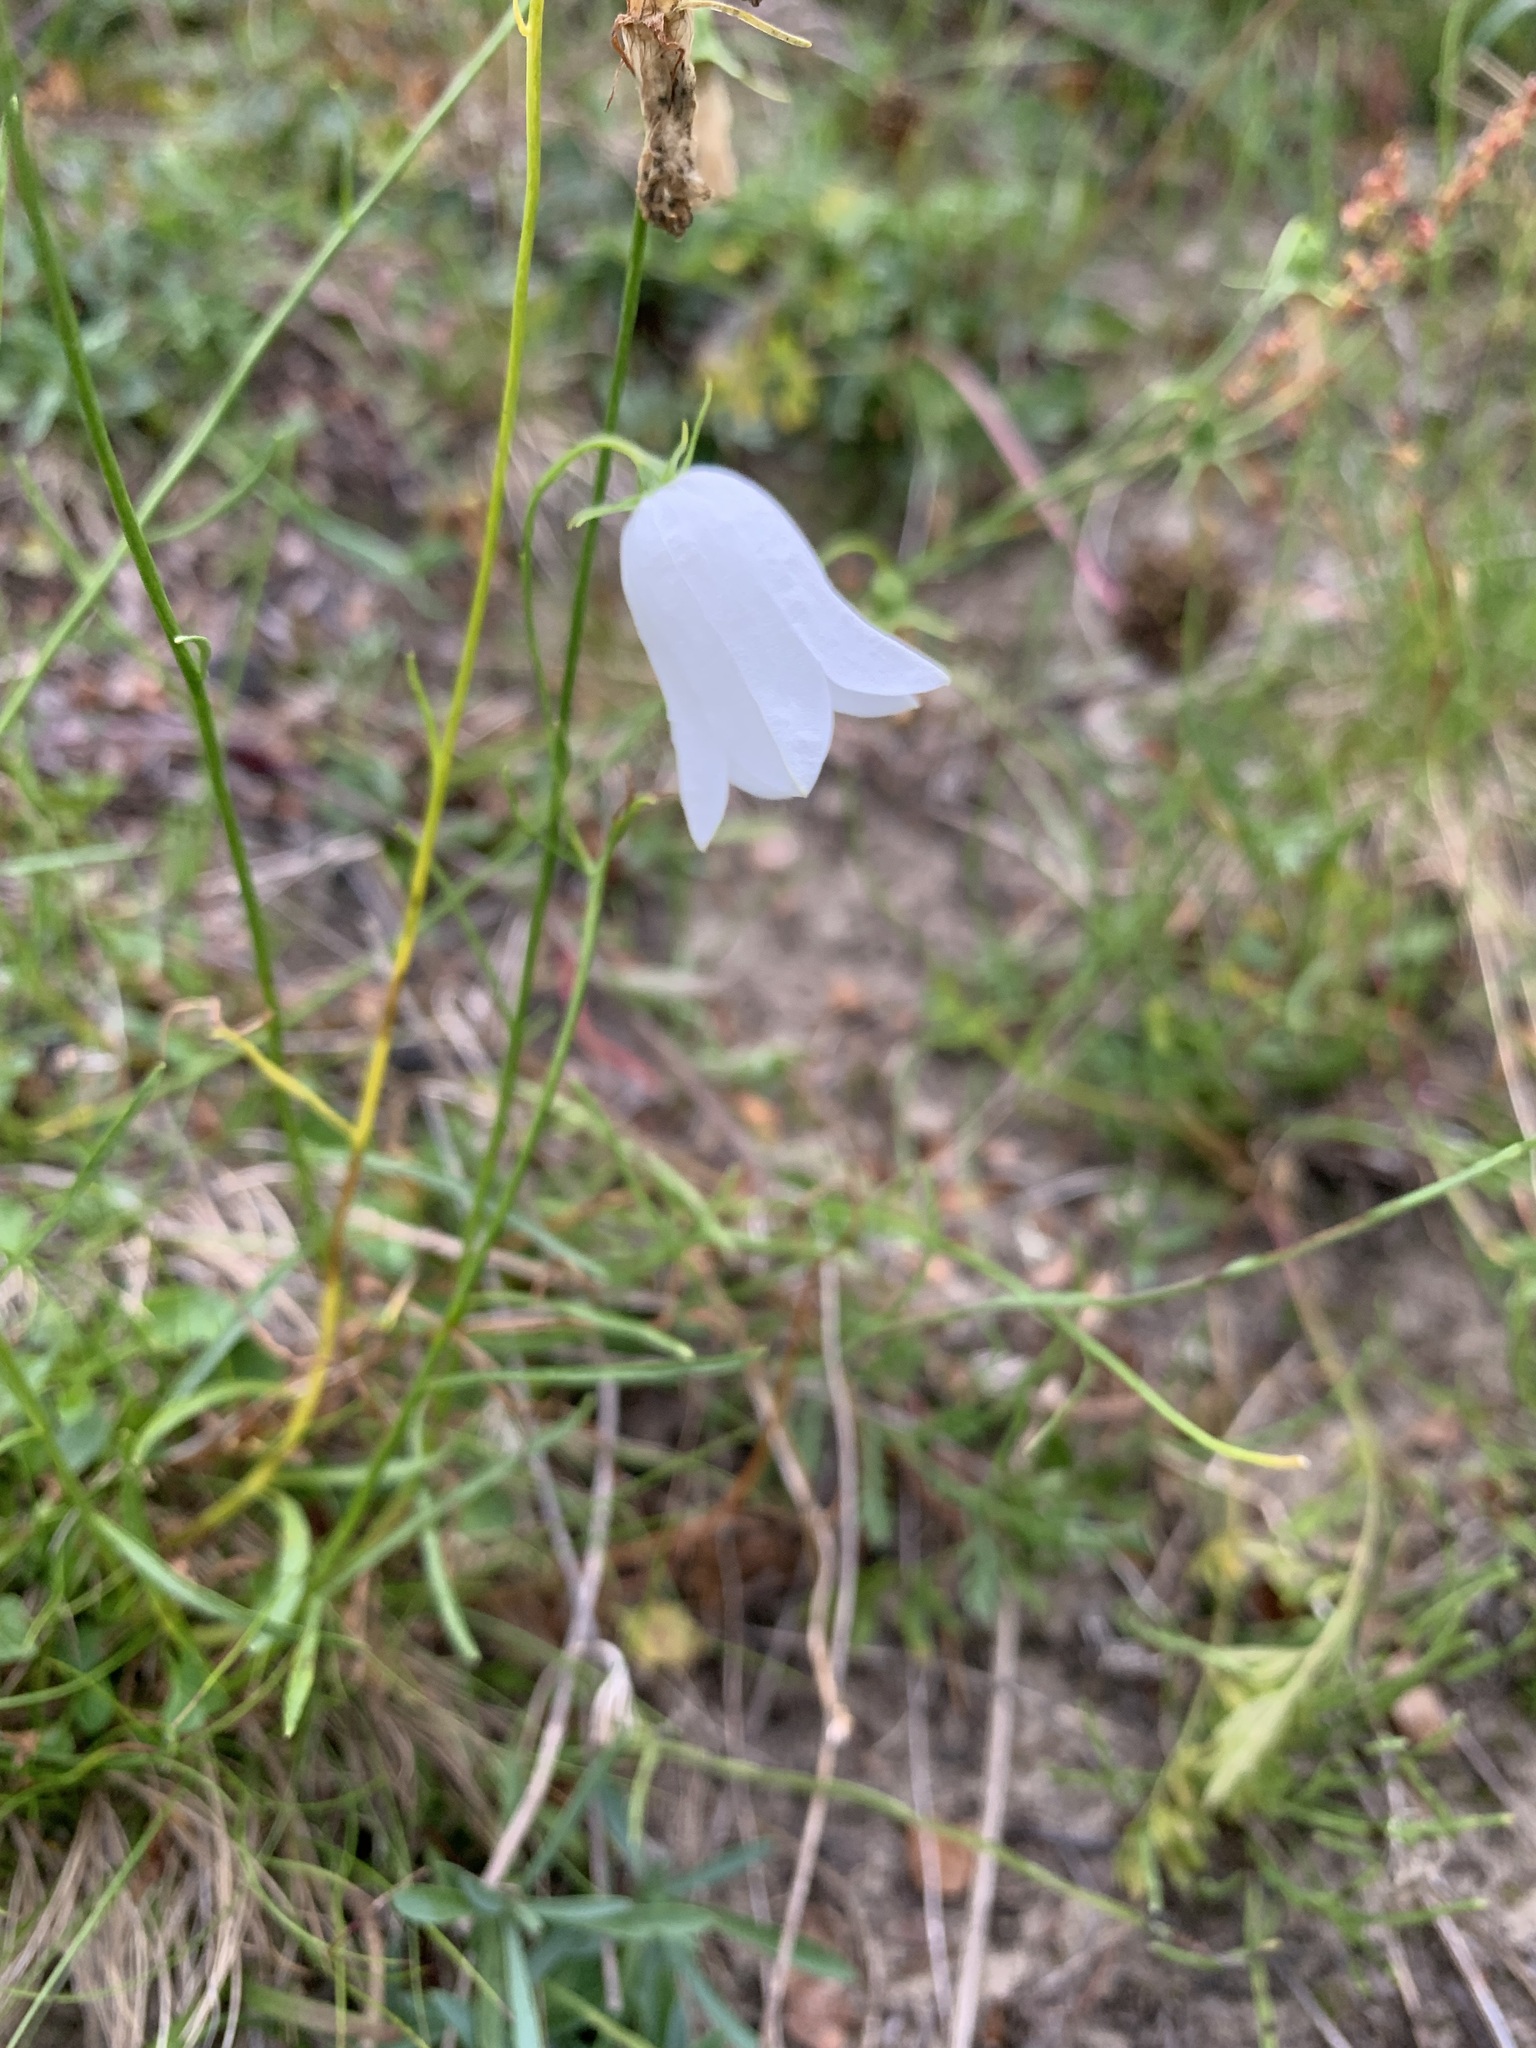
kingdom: Plantae
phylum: Tracheophyta
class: Magnoliopsida
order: Asterales
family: Campanulaceae
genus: Campanula
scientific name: Campanula rotundifolia
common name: Harebell
